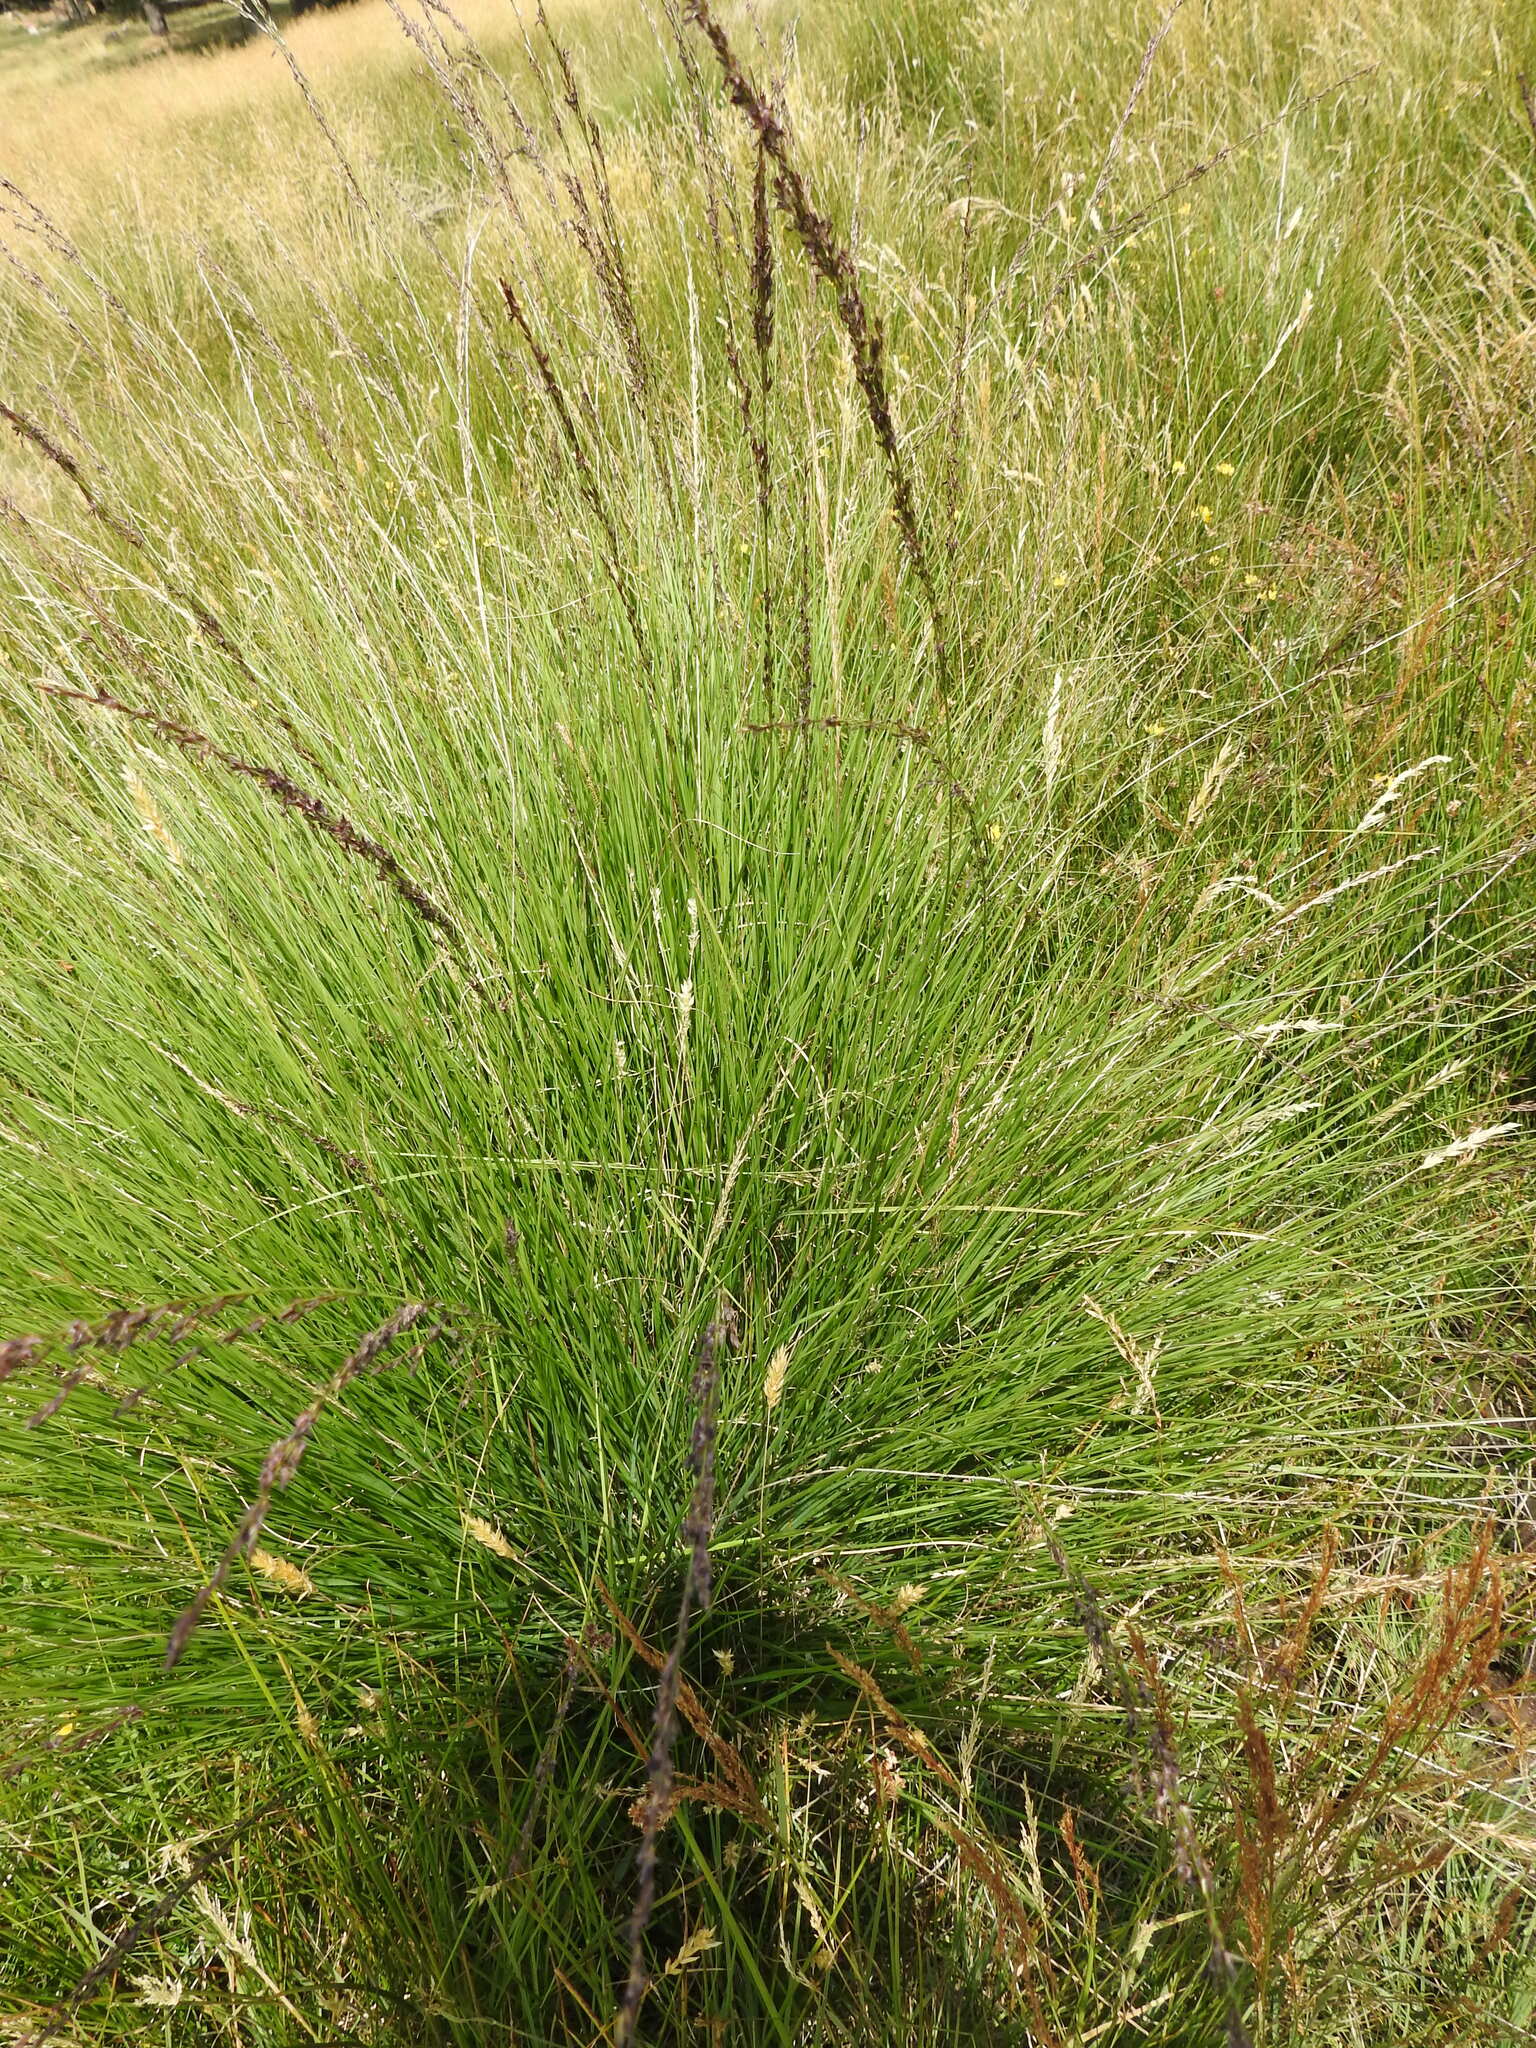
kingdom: Plantae
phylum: Tracheophyta
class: Liliopsida
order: Poales
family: Poaceae
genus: Molinia
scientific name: Molinia caerulea
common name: Purple moor-grass
